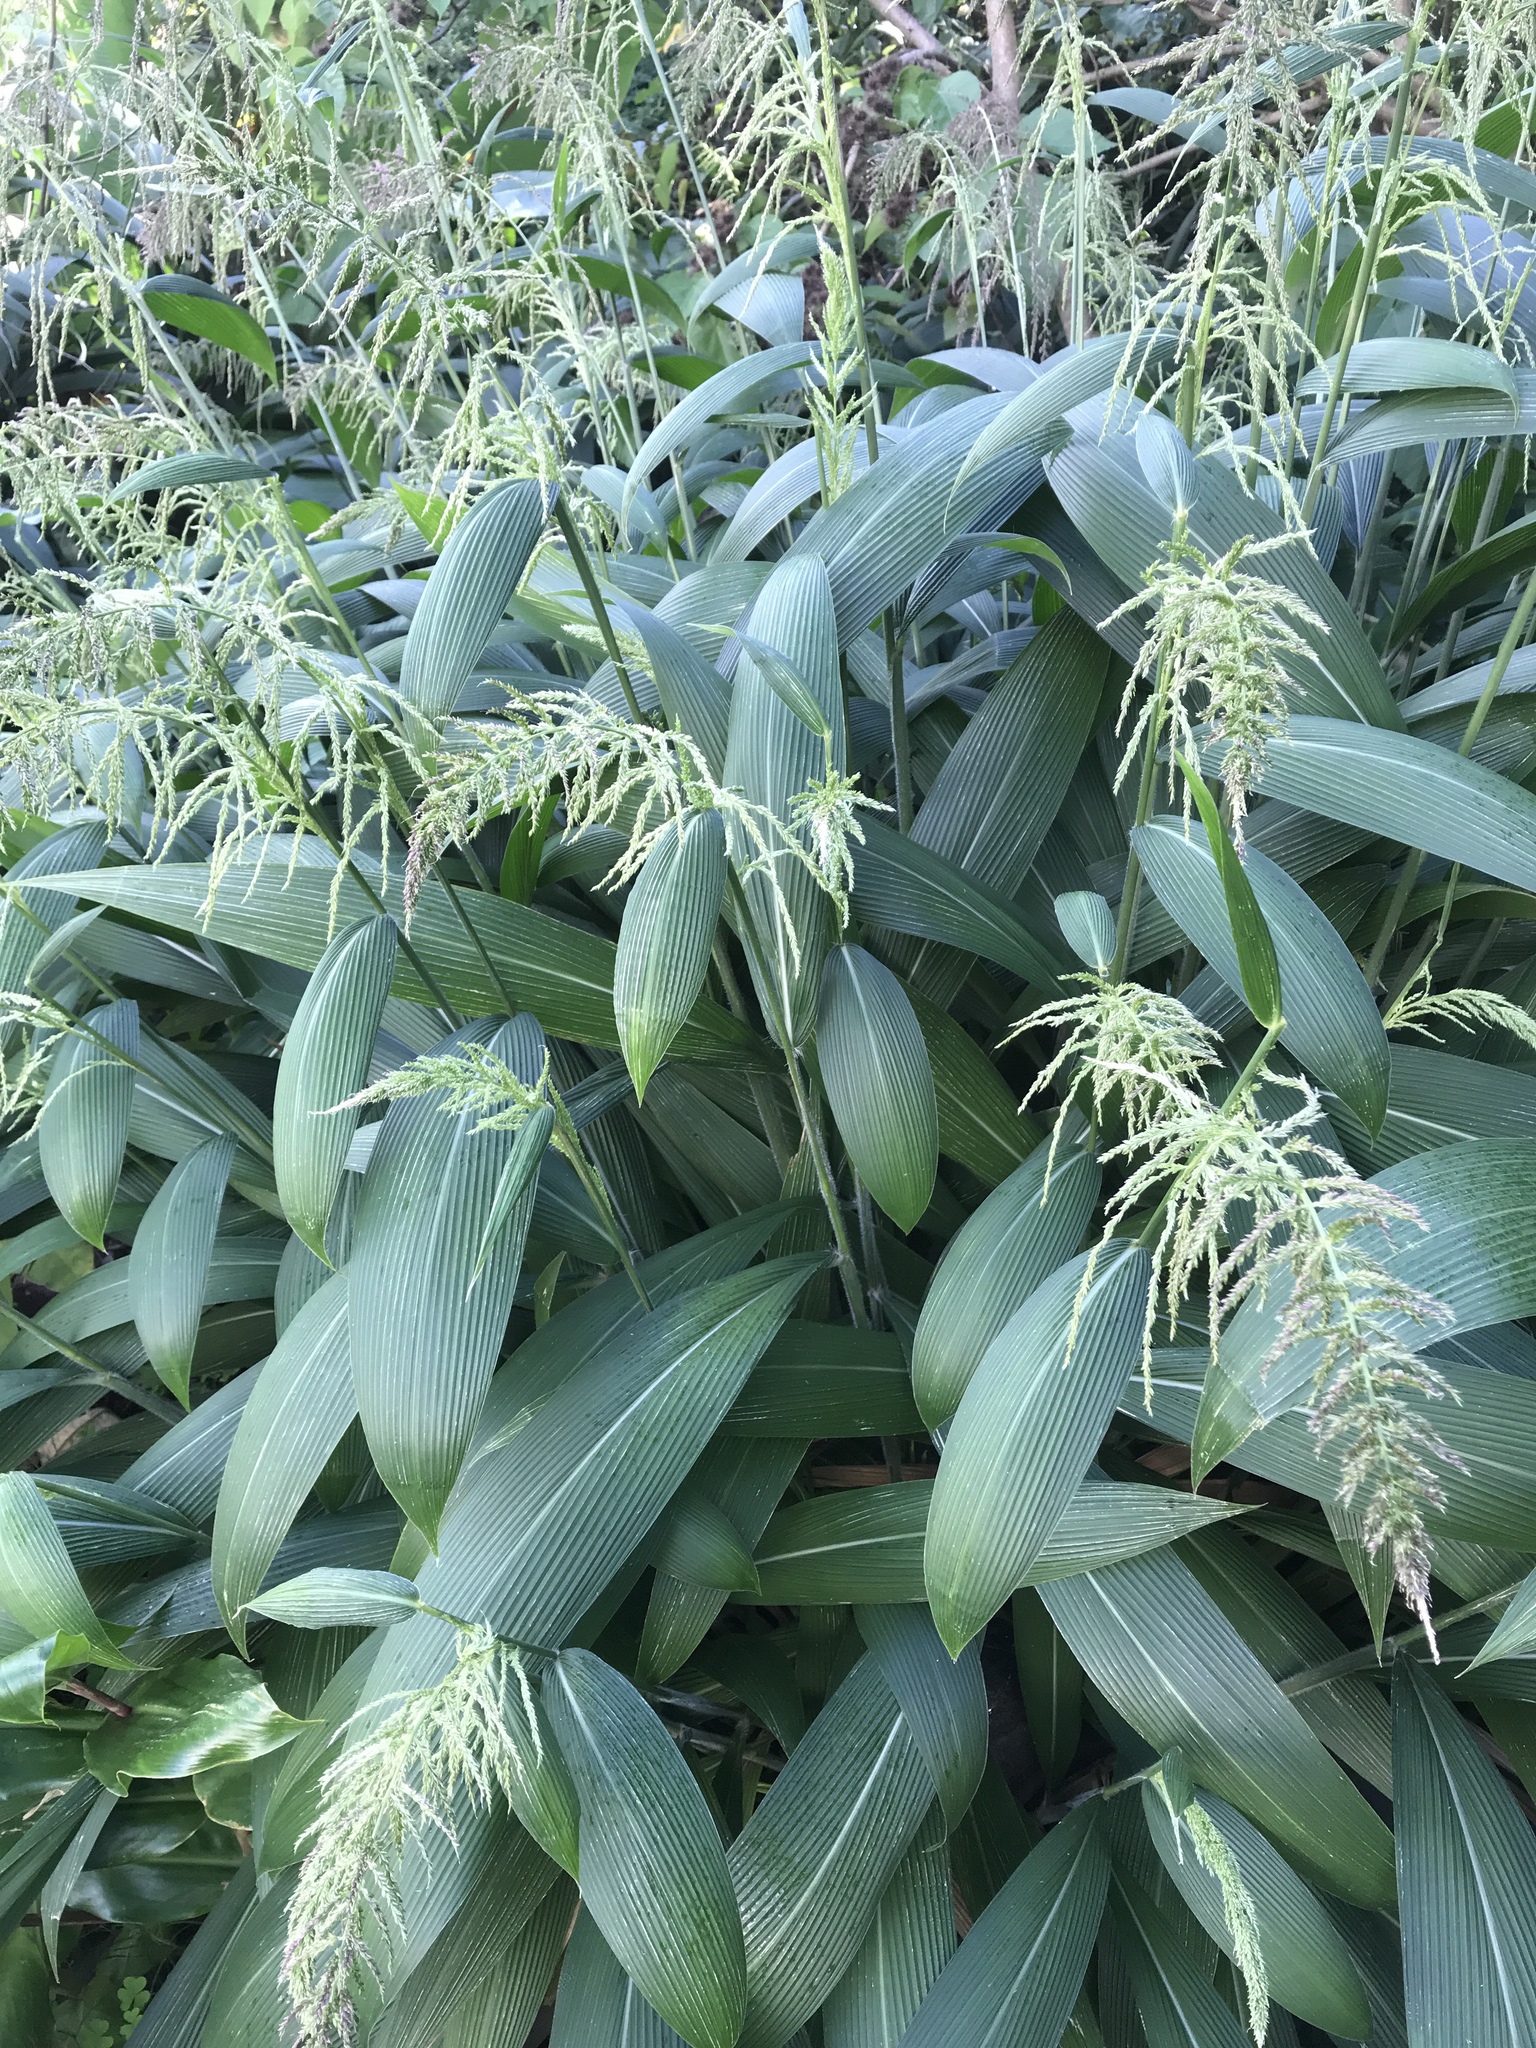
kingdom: Plantae
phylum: Tracheophyta
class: Liliopsida
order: Poales
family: Poaceae
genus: Setaria
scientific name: Setaria palmifolia
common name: Broadleaved bristlegrass
